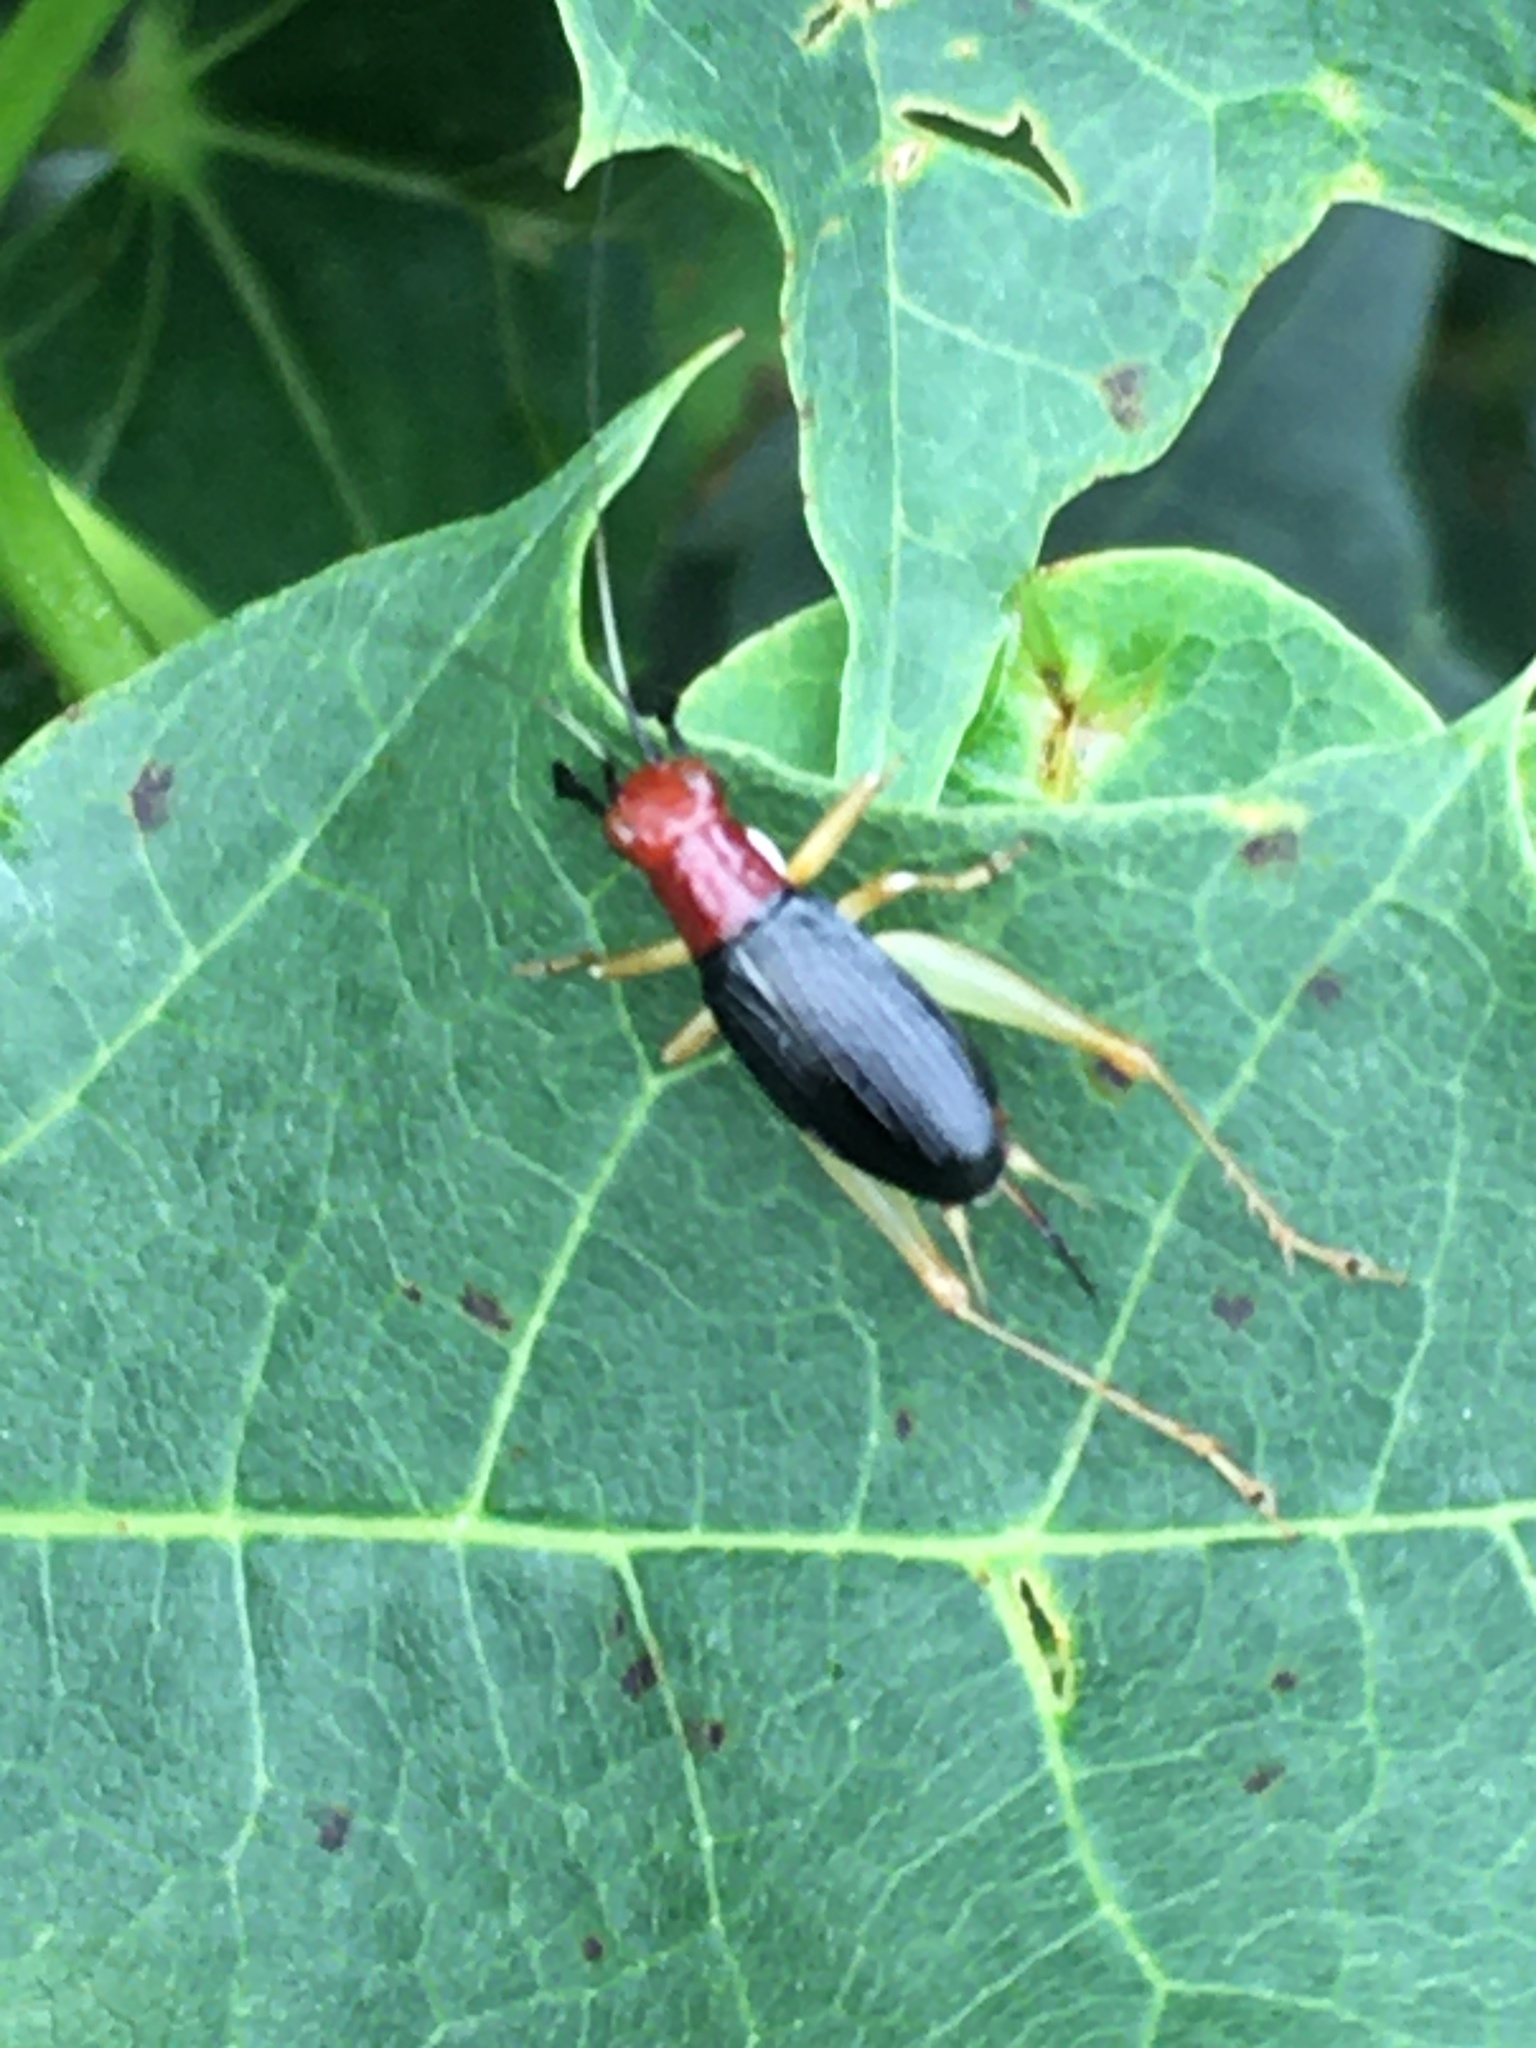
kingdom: Animalia
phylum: Arthropoda
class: Insecta
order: Orthoptera
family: Trigonidiidae
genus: Phyllopalpus
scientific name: Phyllopalpus pulchellus
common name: Handsome trig
